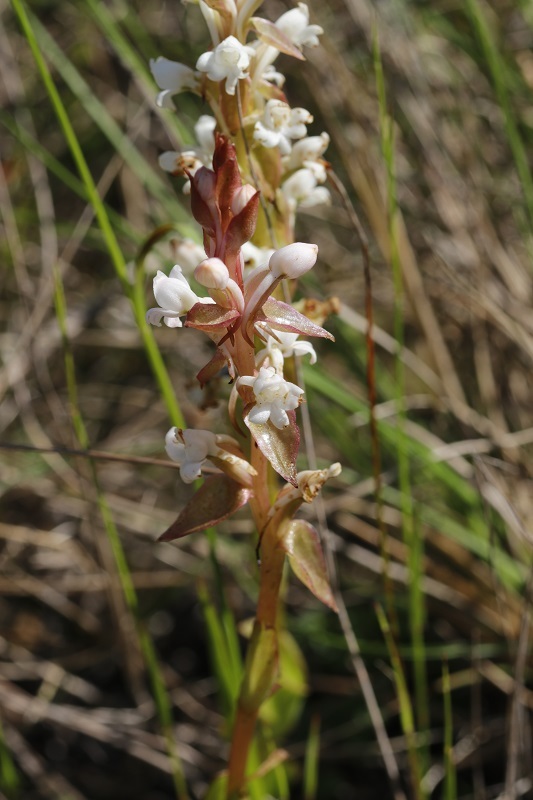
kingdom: Plantae
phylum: Tracheophyta
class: Liliopsida
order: Asparagales
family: Orchidaceae
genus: Satyrium
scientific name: Satyrium acuminatum
